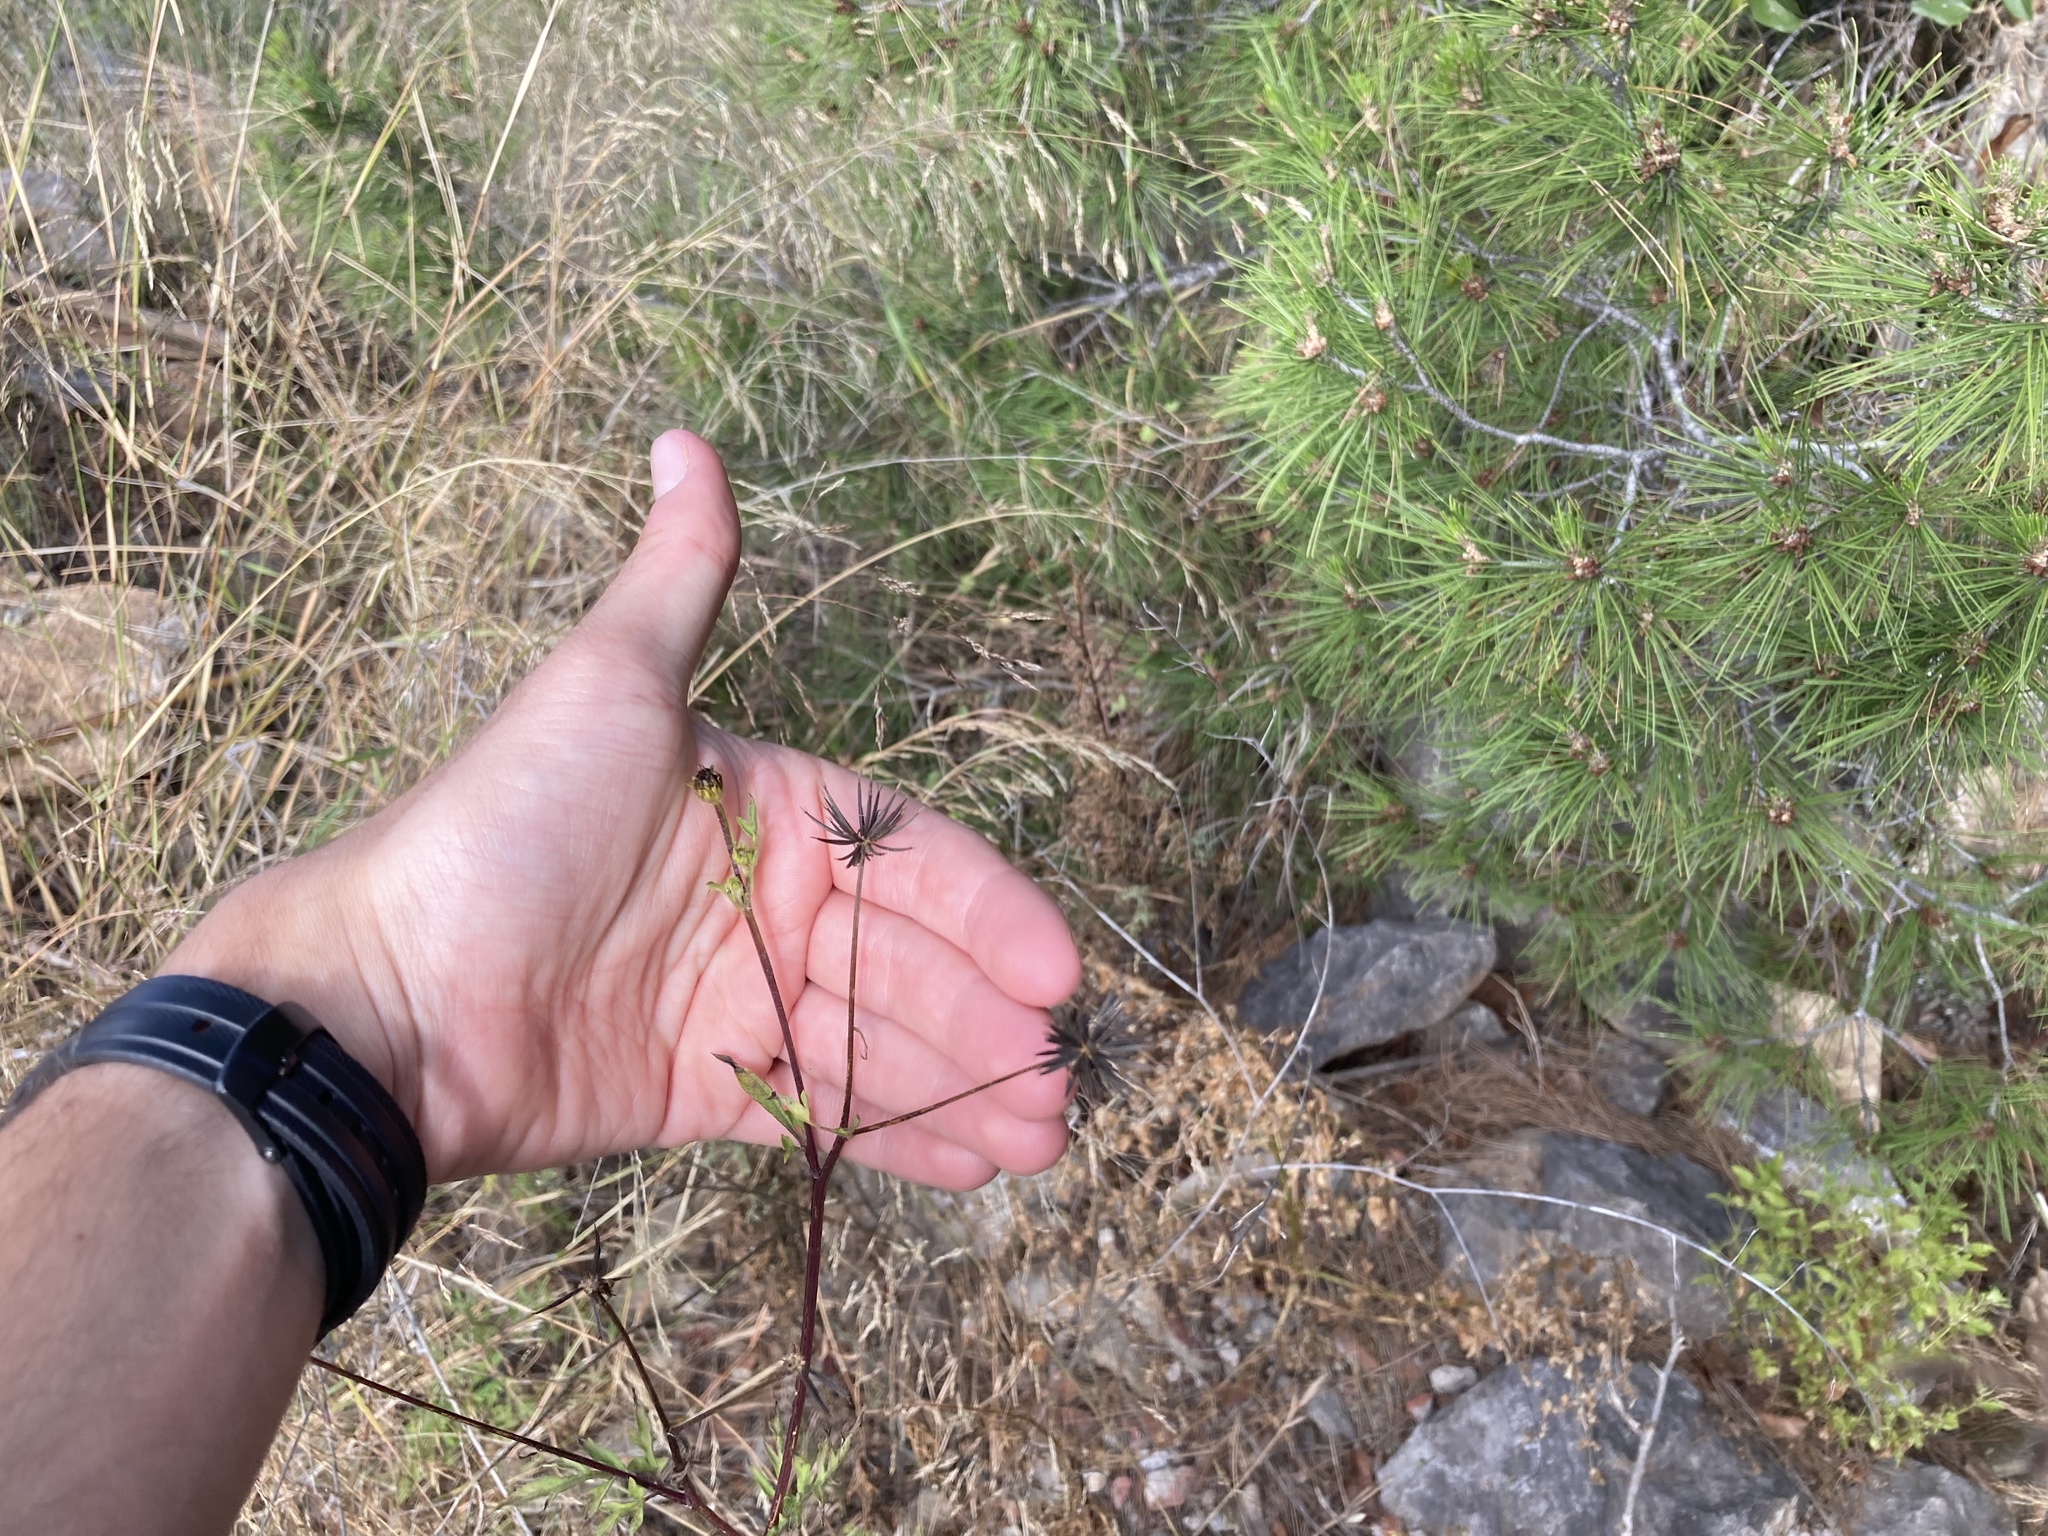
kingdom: Plantae
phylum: Tracheophyta
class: Magnoliopsida
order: Asterales
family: Asteraceae
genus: Bidens
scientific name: Bidens subalternans
